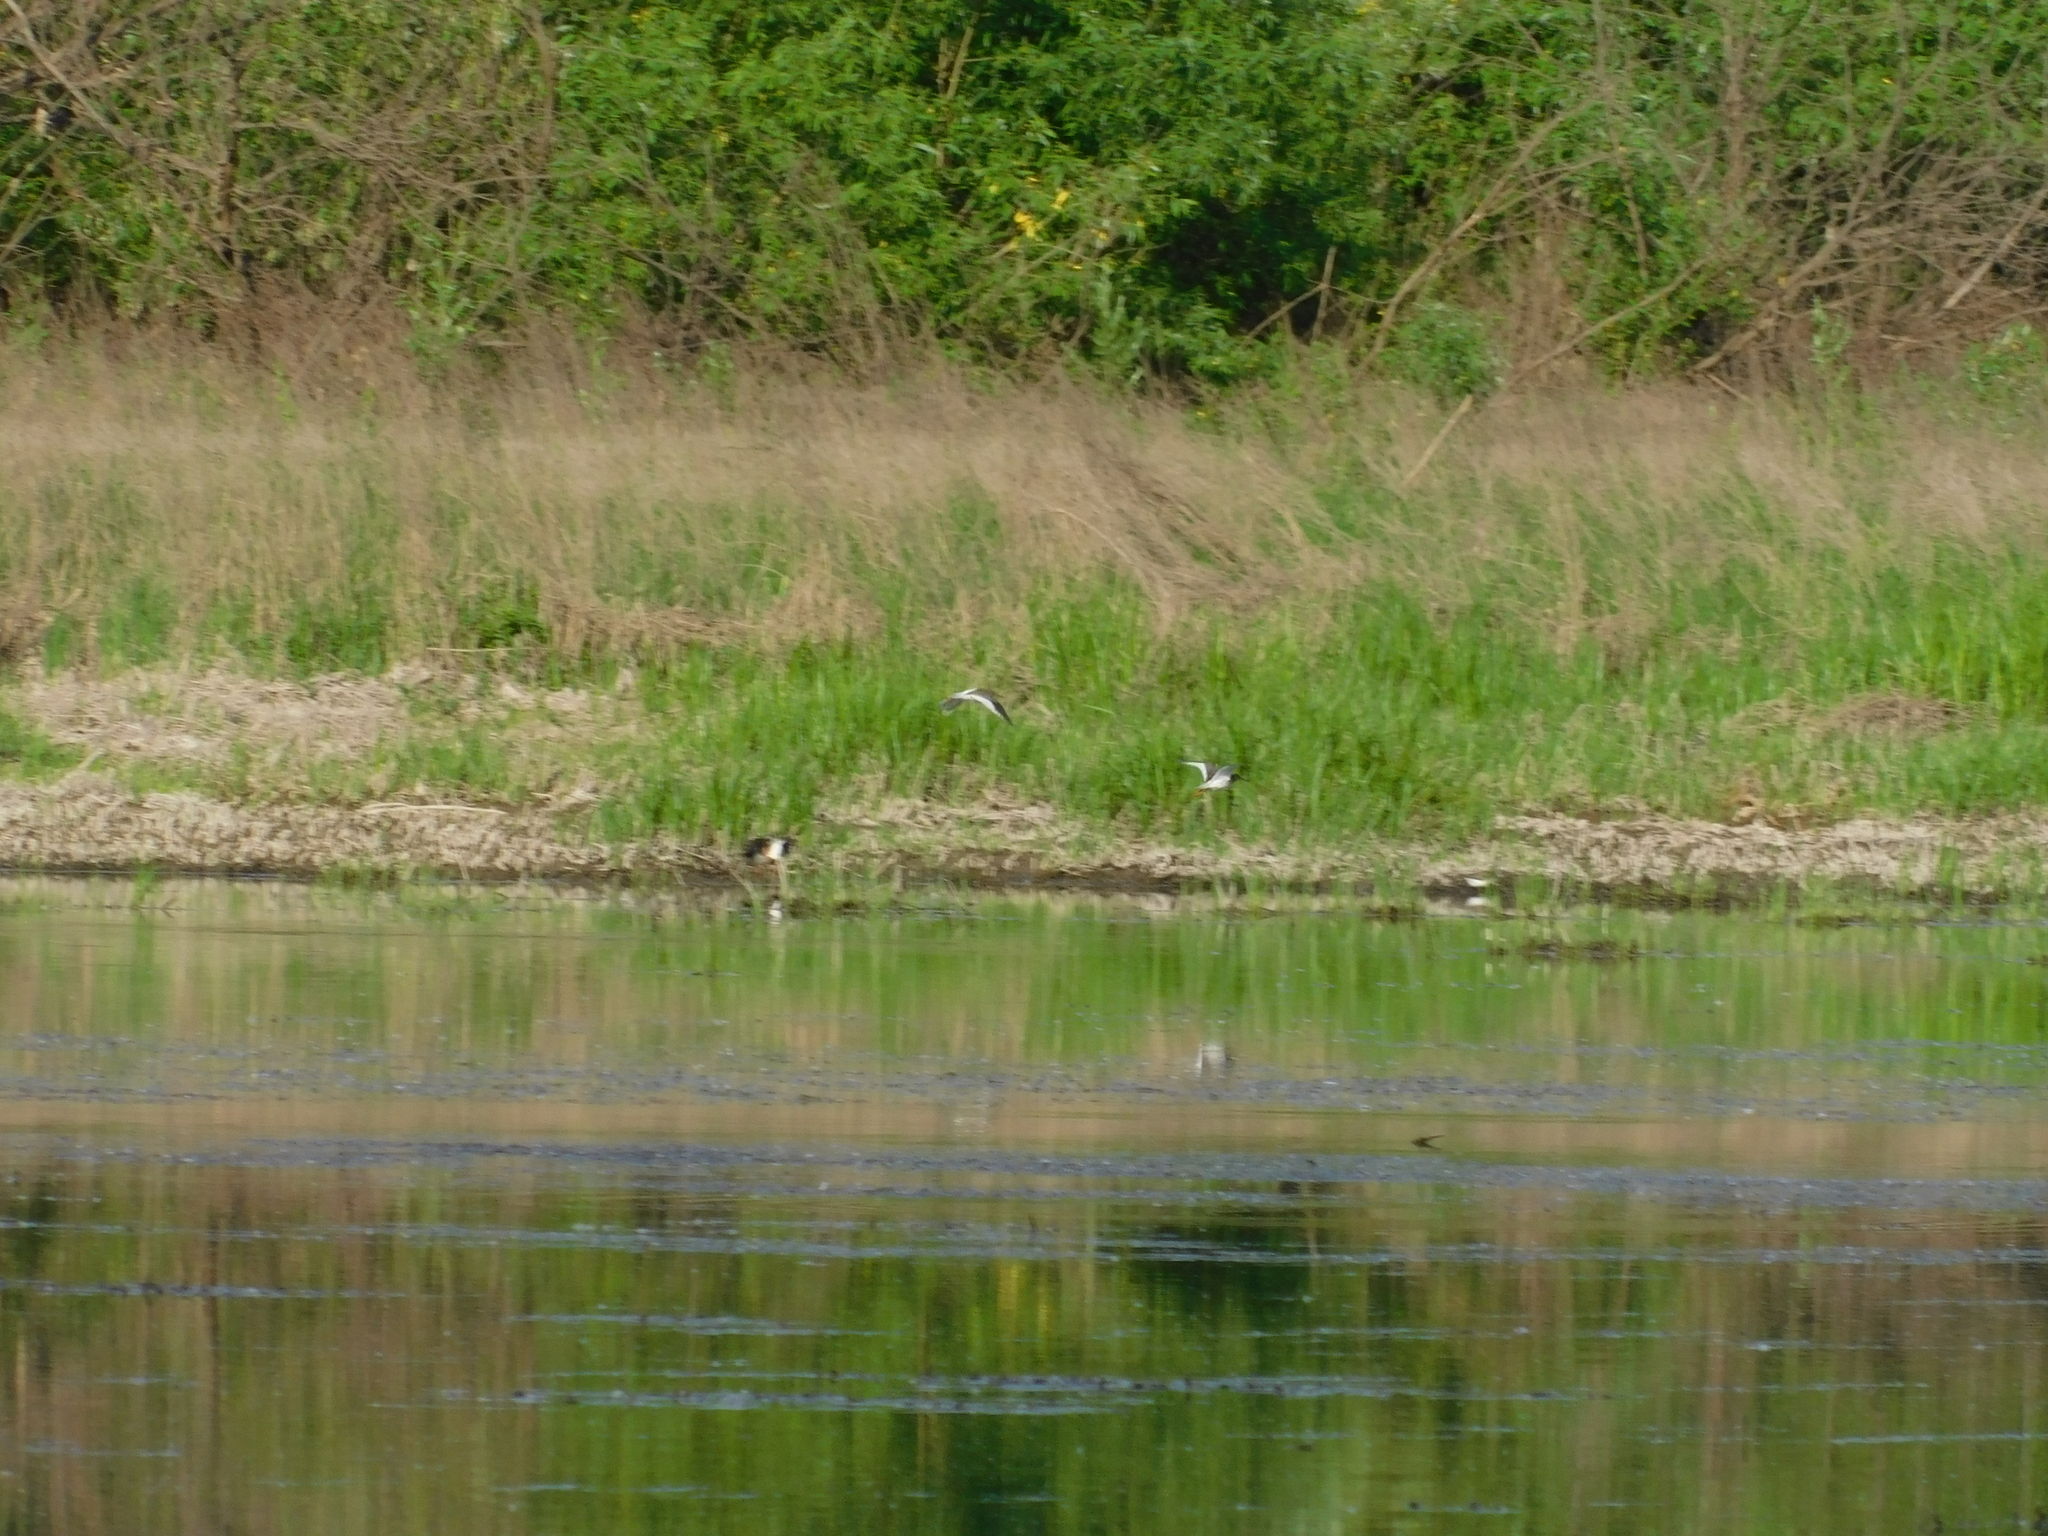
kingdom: Animalia
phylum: Chordata
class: Aves
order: Charadriiformes
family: Scolopacidae
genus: Tringa
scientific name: Tringa totanus
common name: Common redshank
